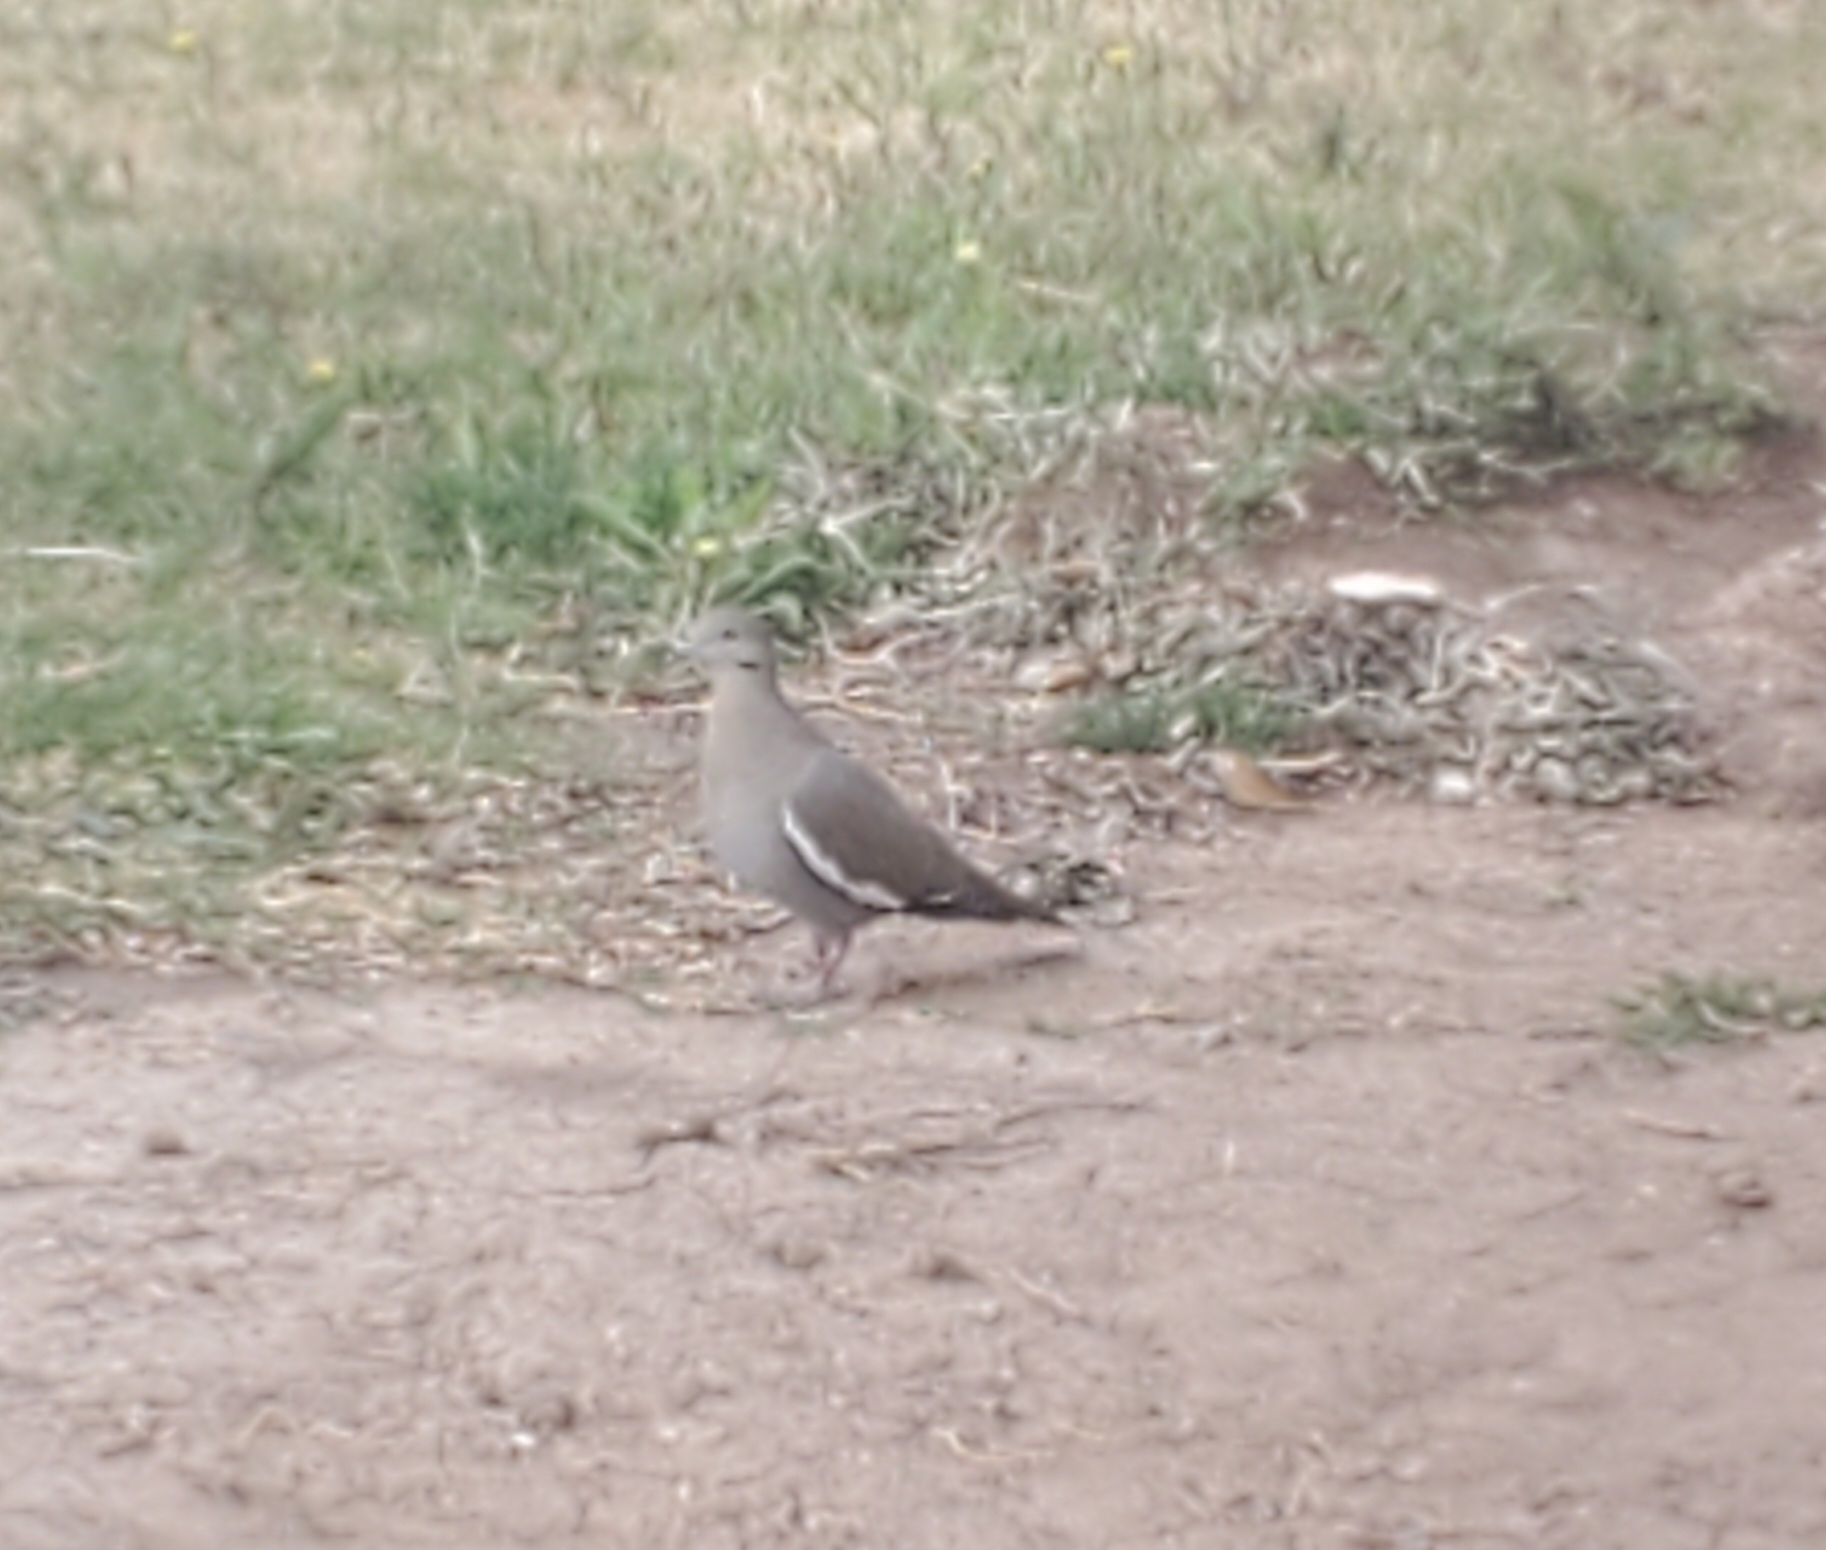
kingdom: Animalia
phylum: Chordata
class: Aves
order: Columbiformes
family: Columbidae
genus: Zenaida
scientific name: Zenaida asiatica
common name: White-winged dove
